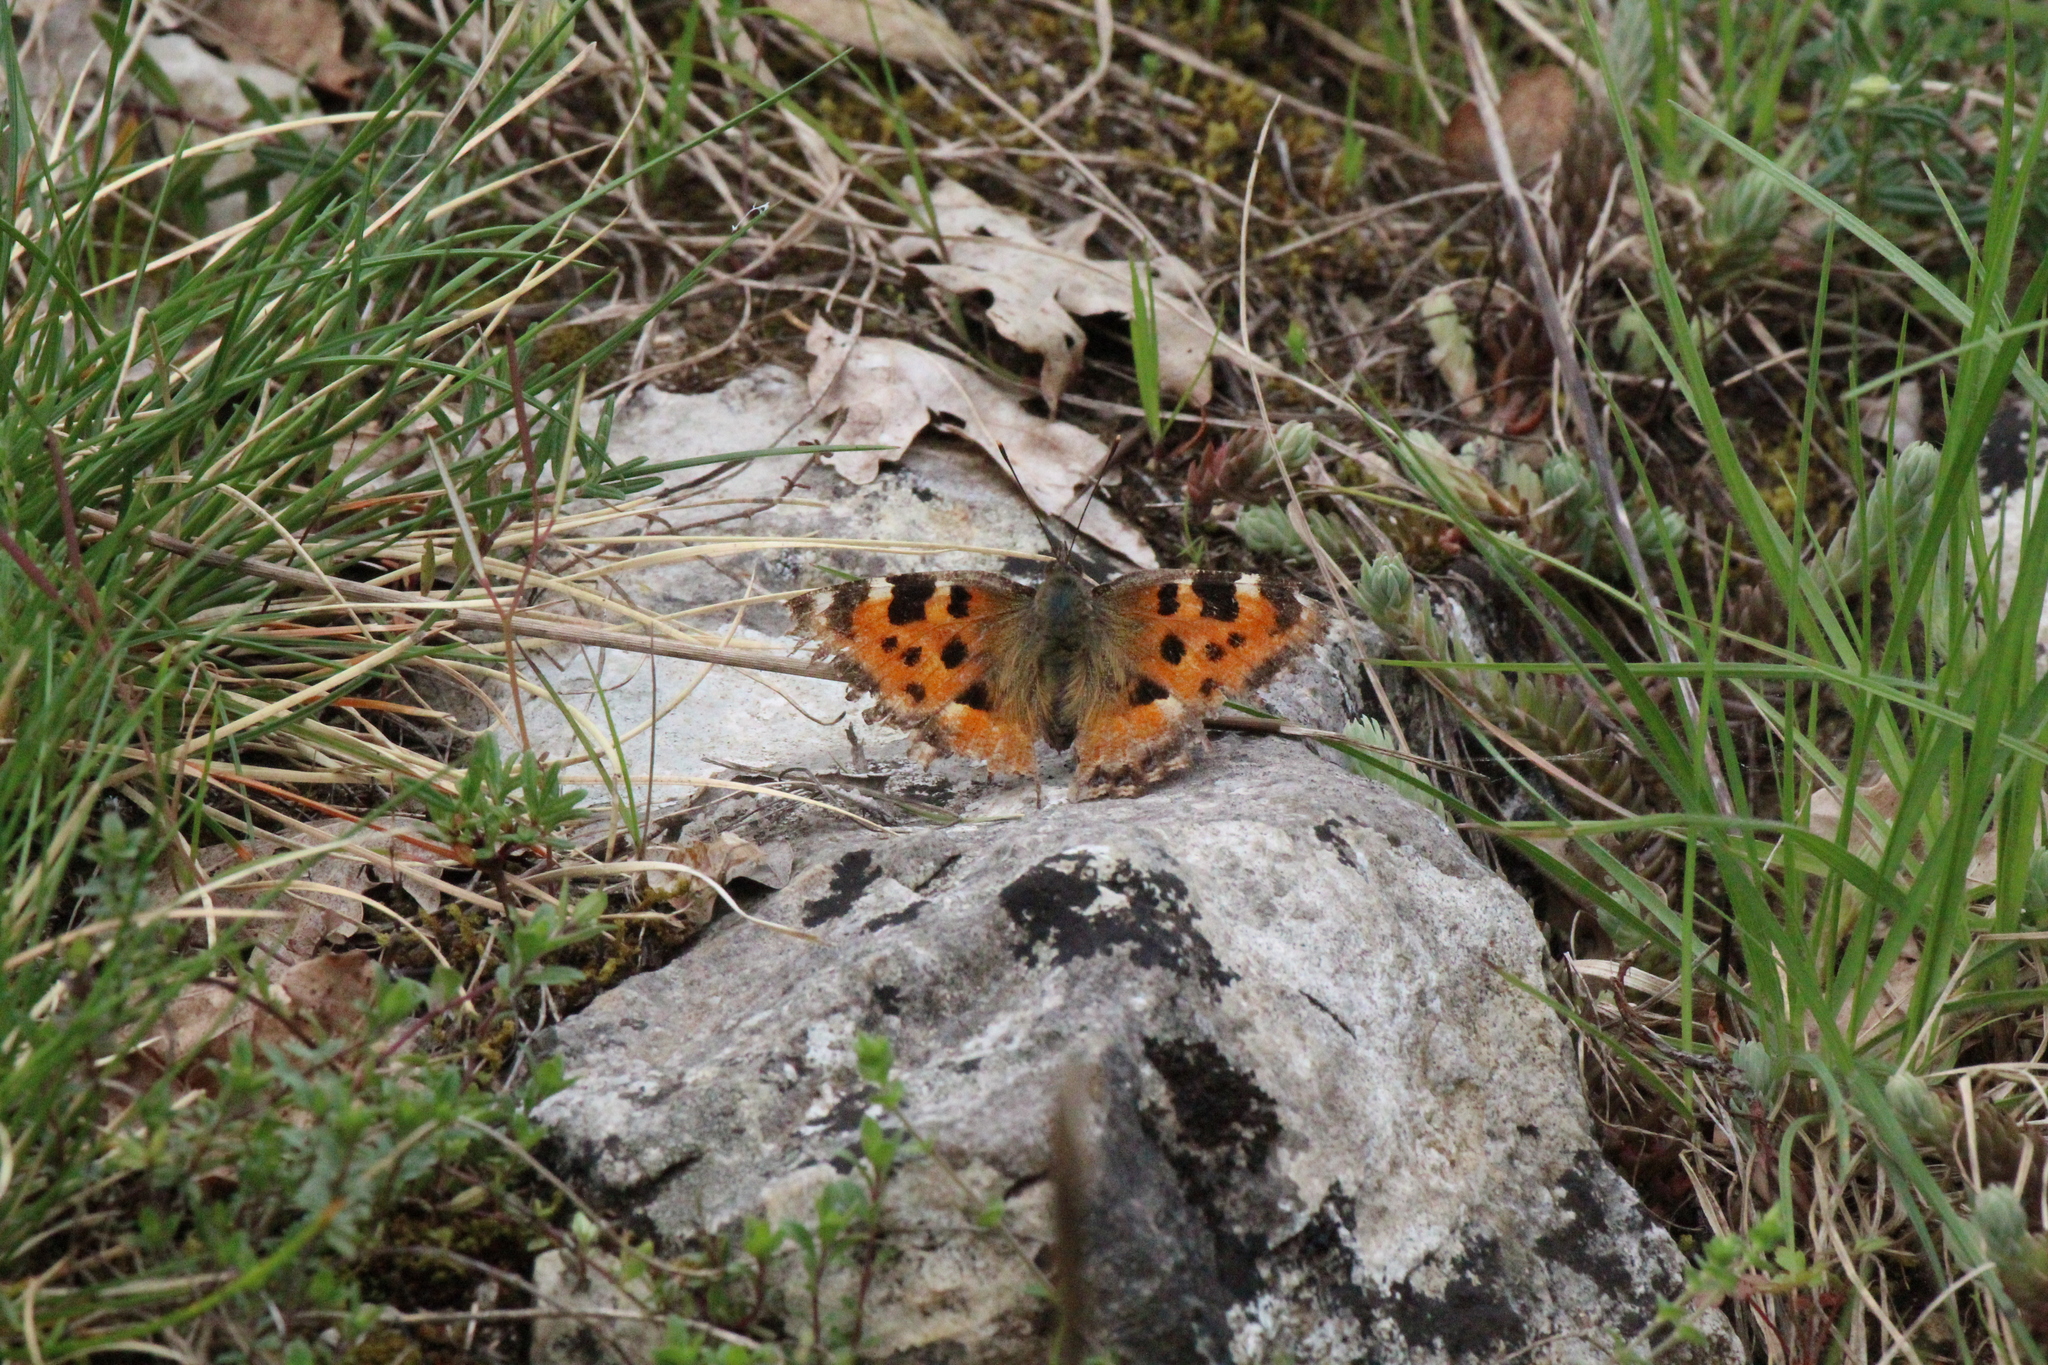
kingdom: Animalia
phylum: Arthropoda
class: Insecta
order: Lepidoptera
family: Nymphalidae
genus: Nymphalis
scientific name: Nymphalis polychloros
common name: Large tortoiseshell
